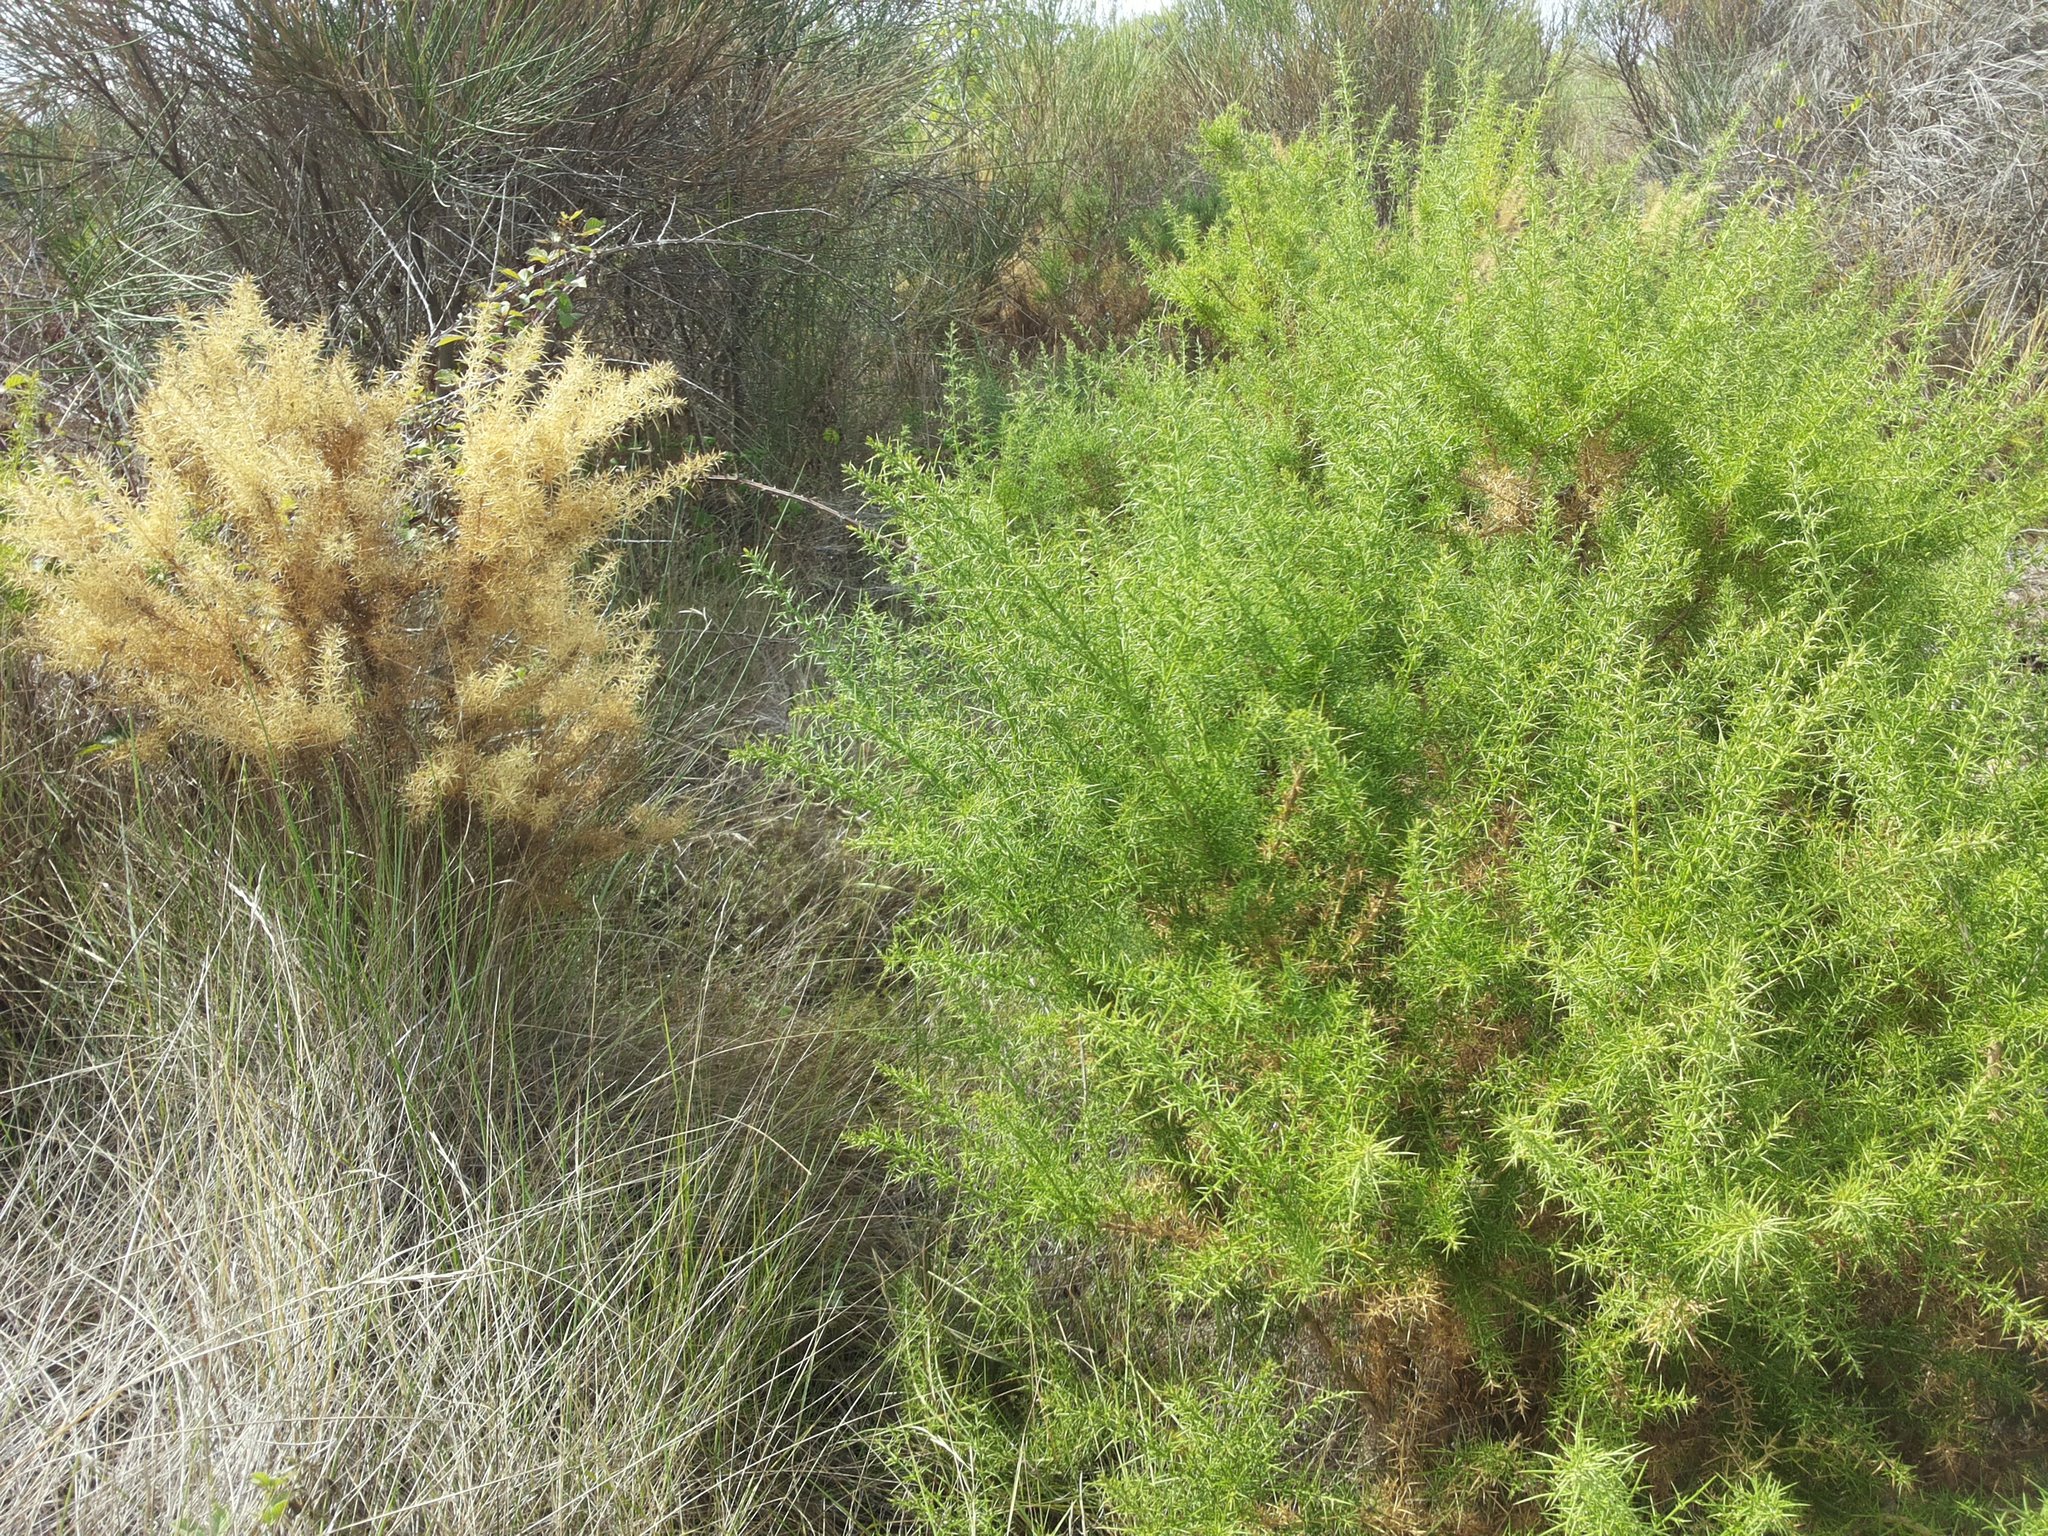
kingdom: Plantae
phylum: Tracheophyta
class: Magnoliopsida
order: Fabales
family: Fabaceae
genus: Ulex
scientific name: Ulex parviflorus
